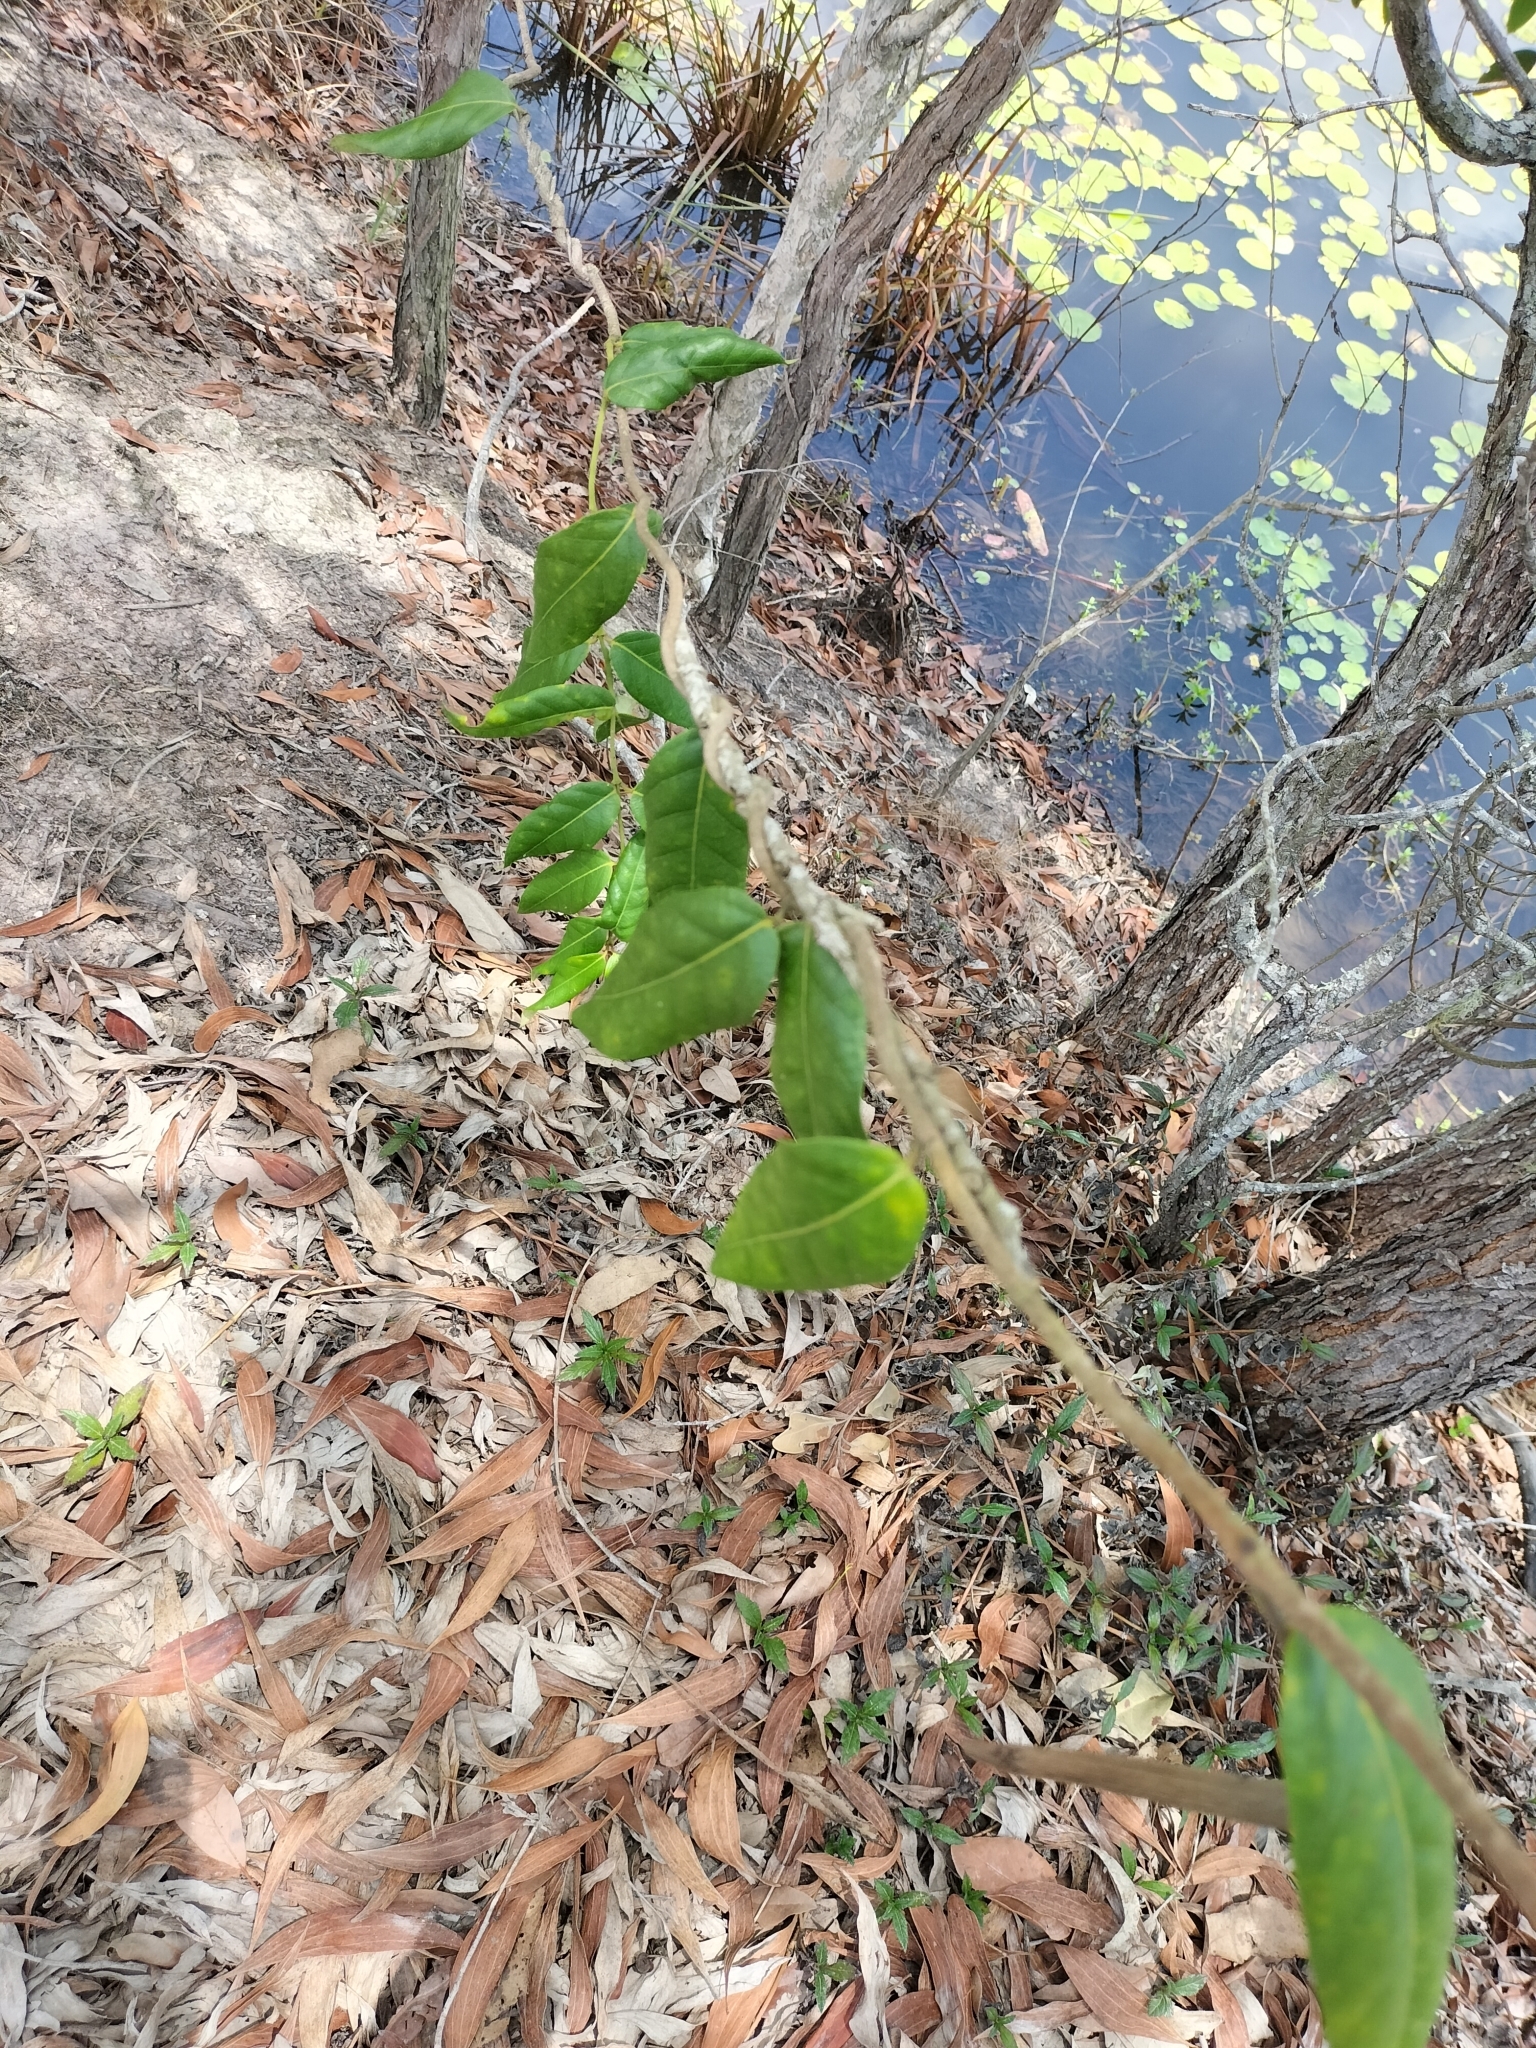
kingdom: Plantae
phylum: Tracheophyta
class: Magnoliopsida
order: Gentianales
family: Apocynaceae
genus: Parsonsia
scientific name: Parsonsia straminea
